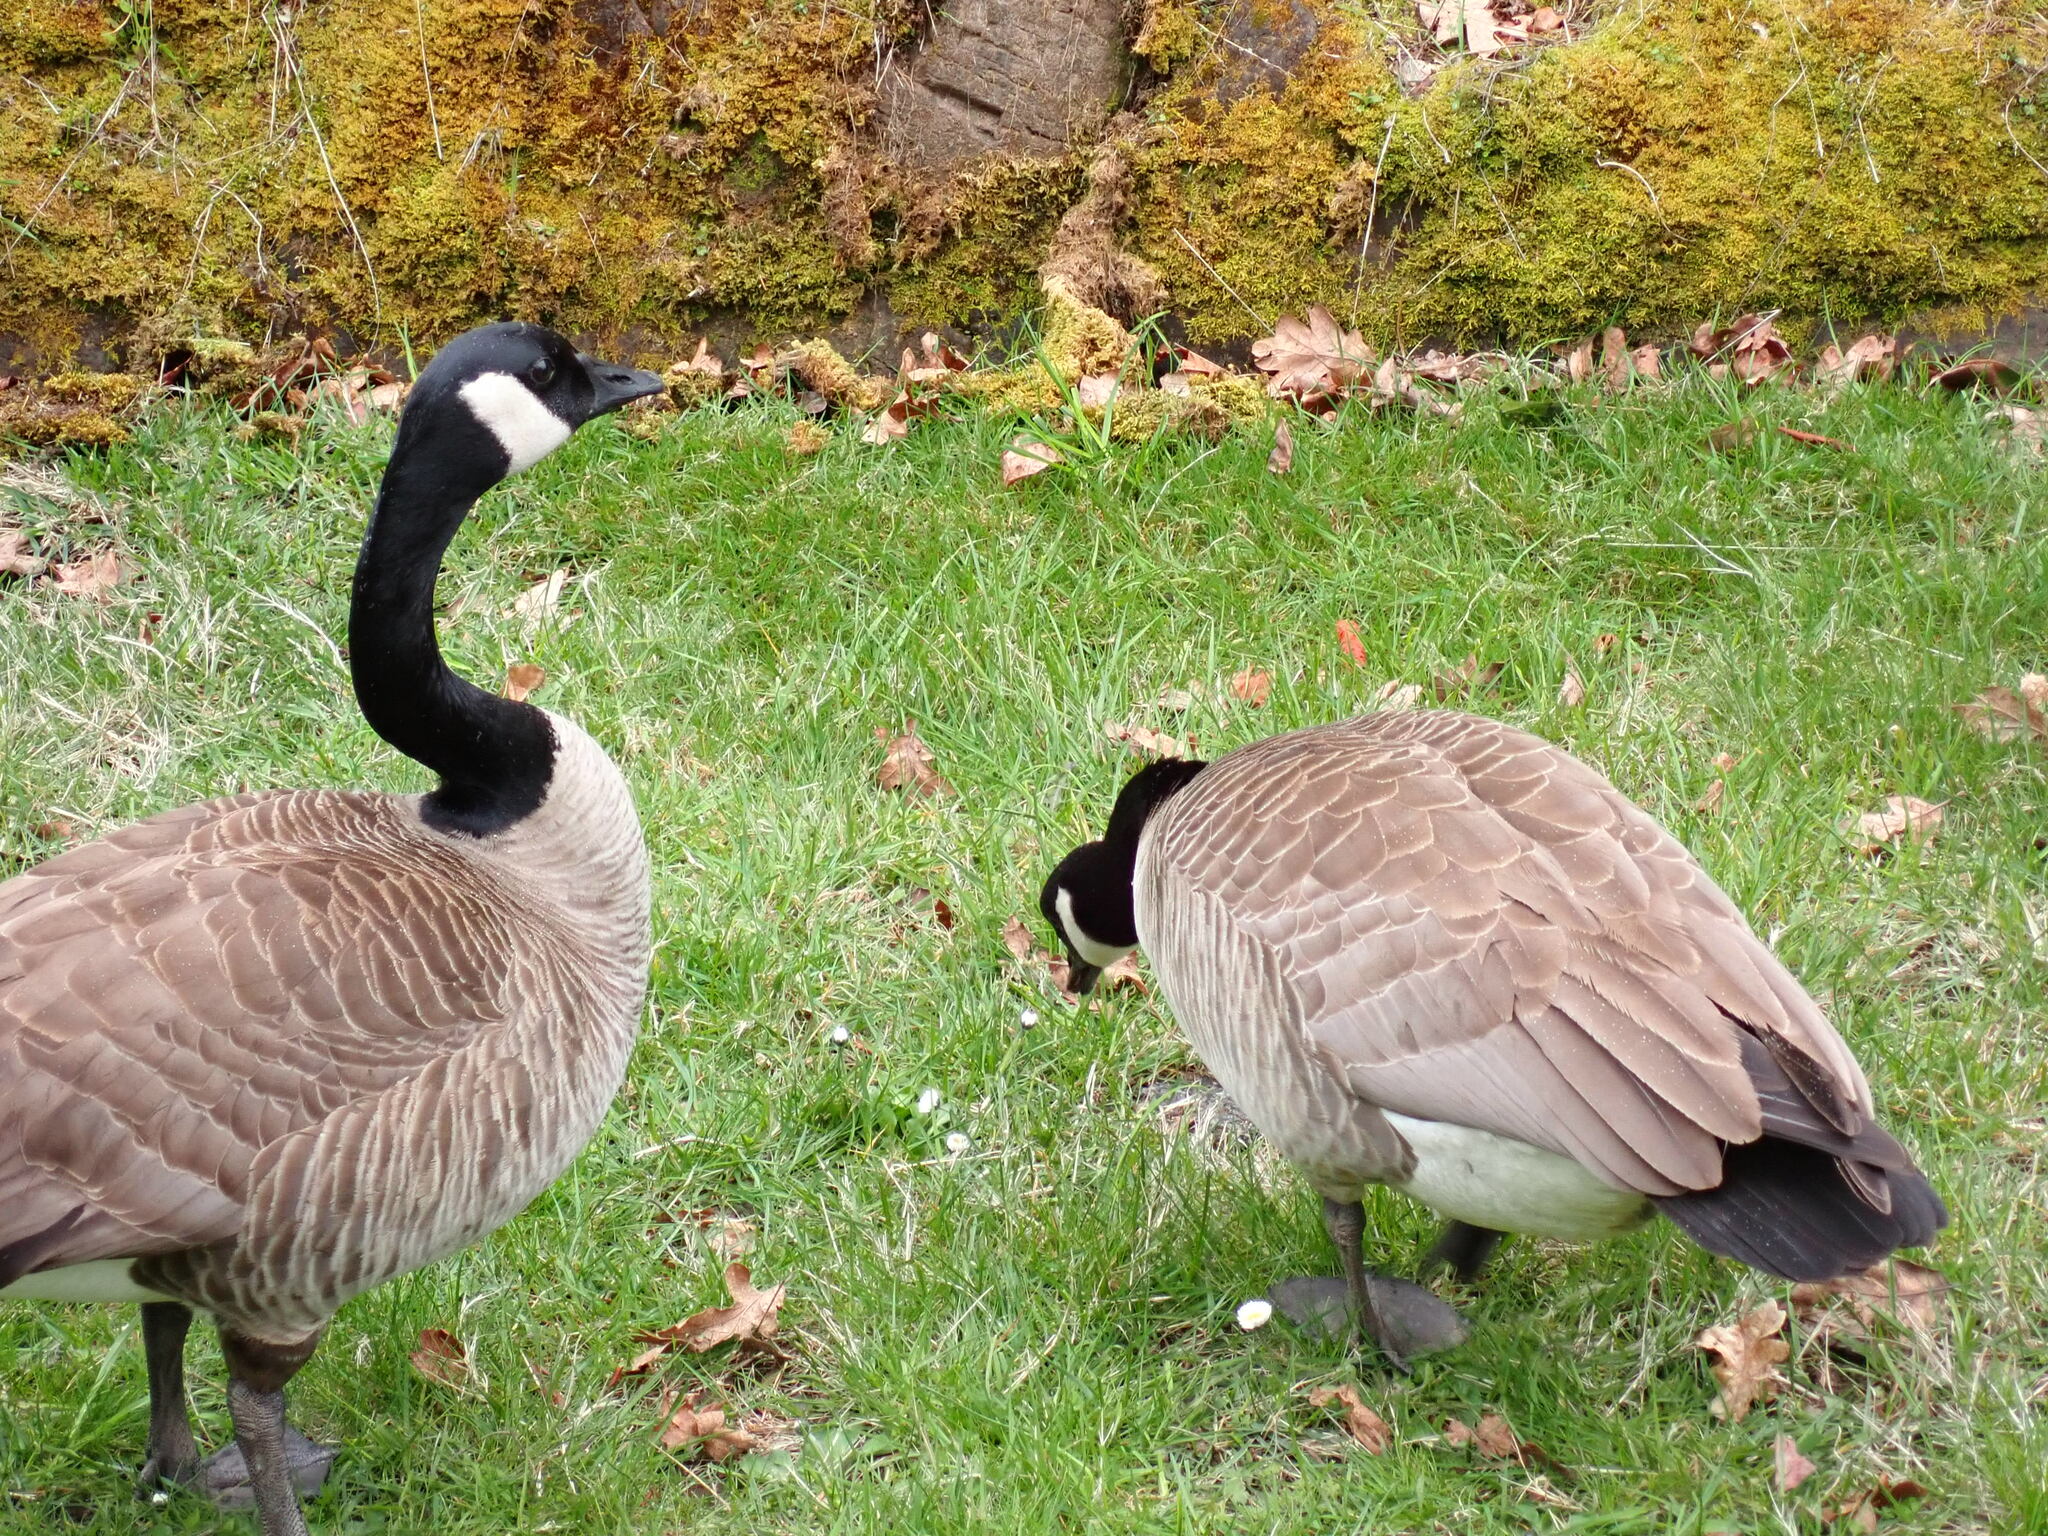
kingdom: Animalia
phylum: Chordata
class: Aves
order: Anseriformes
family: Anatidae
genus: Branta
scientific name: Branta canadensis
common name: Canada goose
